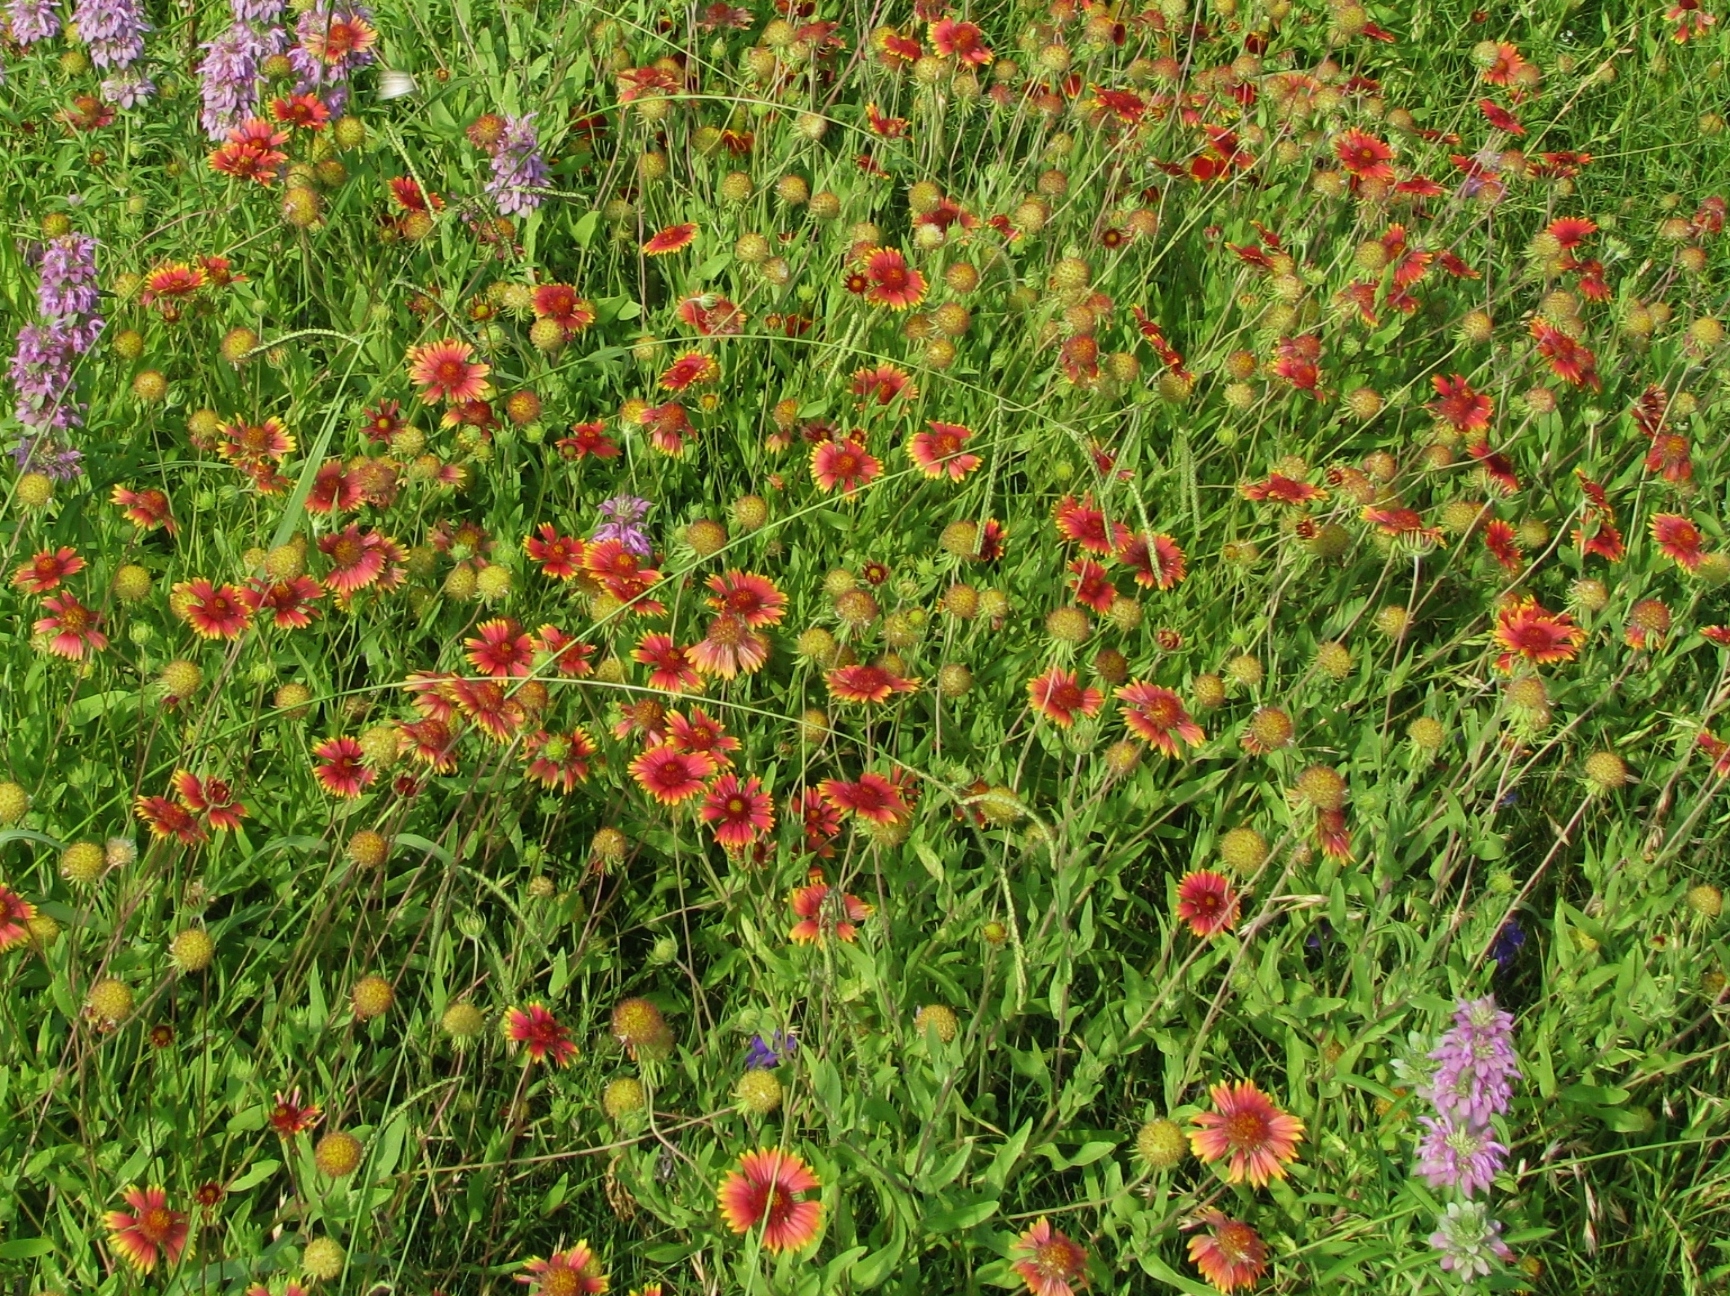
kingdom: Plantae
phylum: Tracheophyta
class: Magnoliopsida
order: Asterales
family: Asteraceae
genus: Gaillardia
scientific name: Gaillardia pulchella
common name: Firewheel
